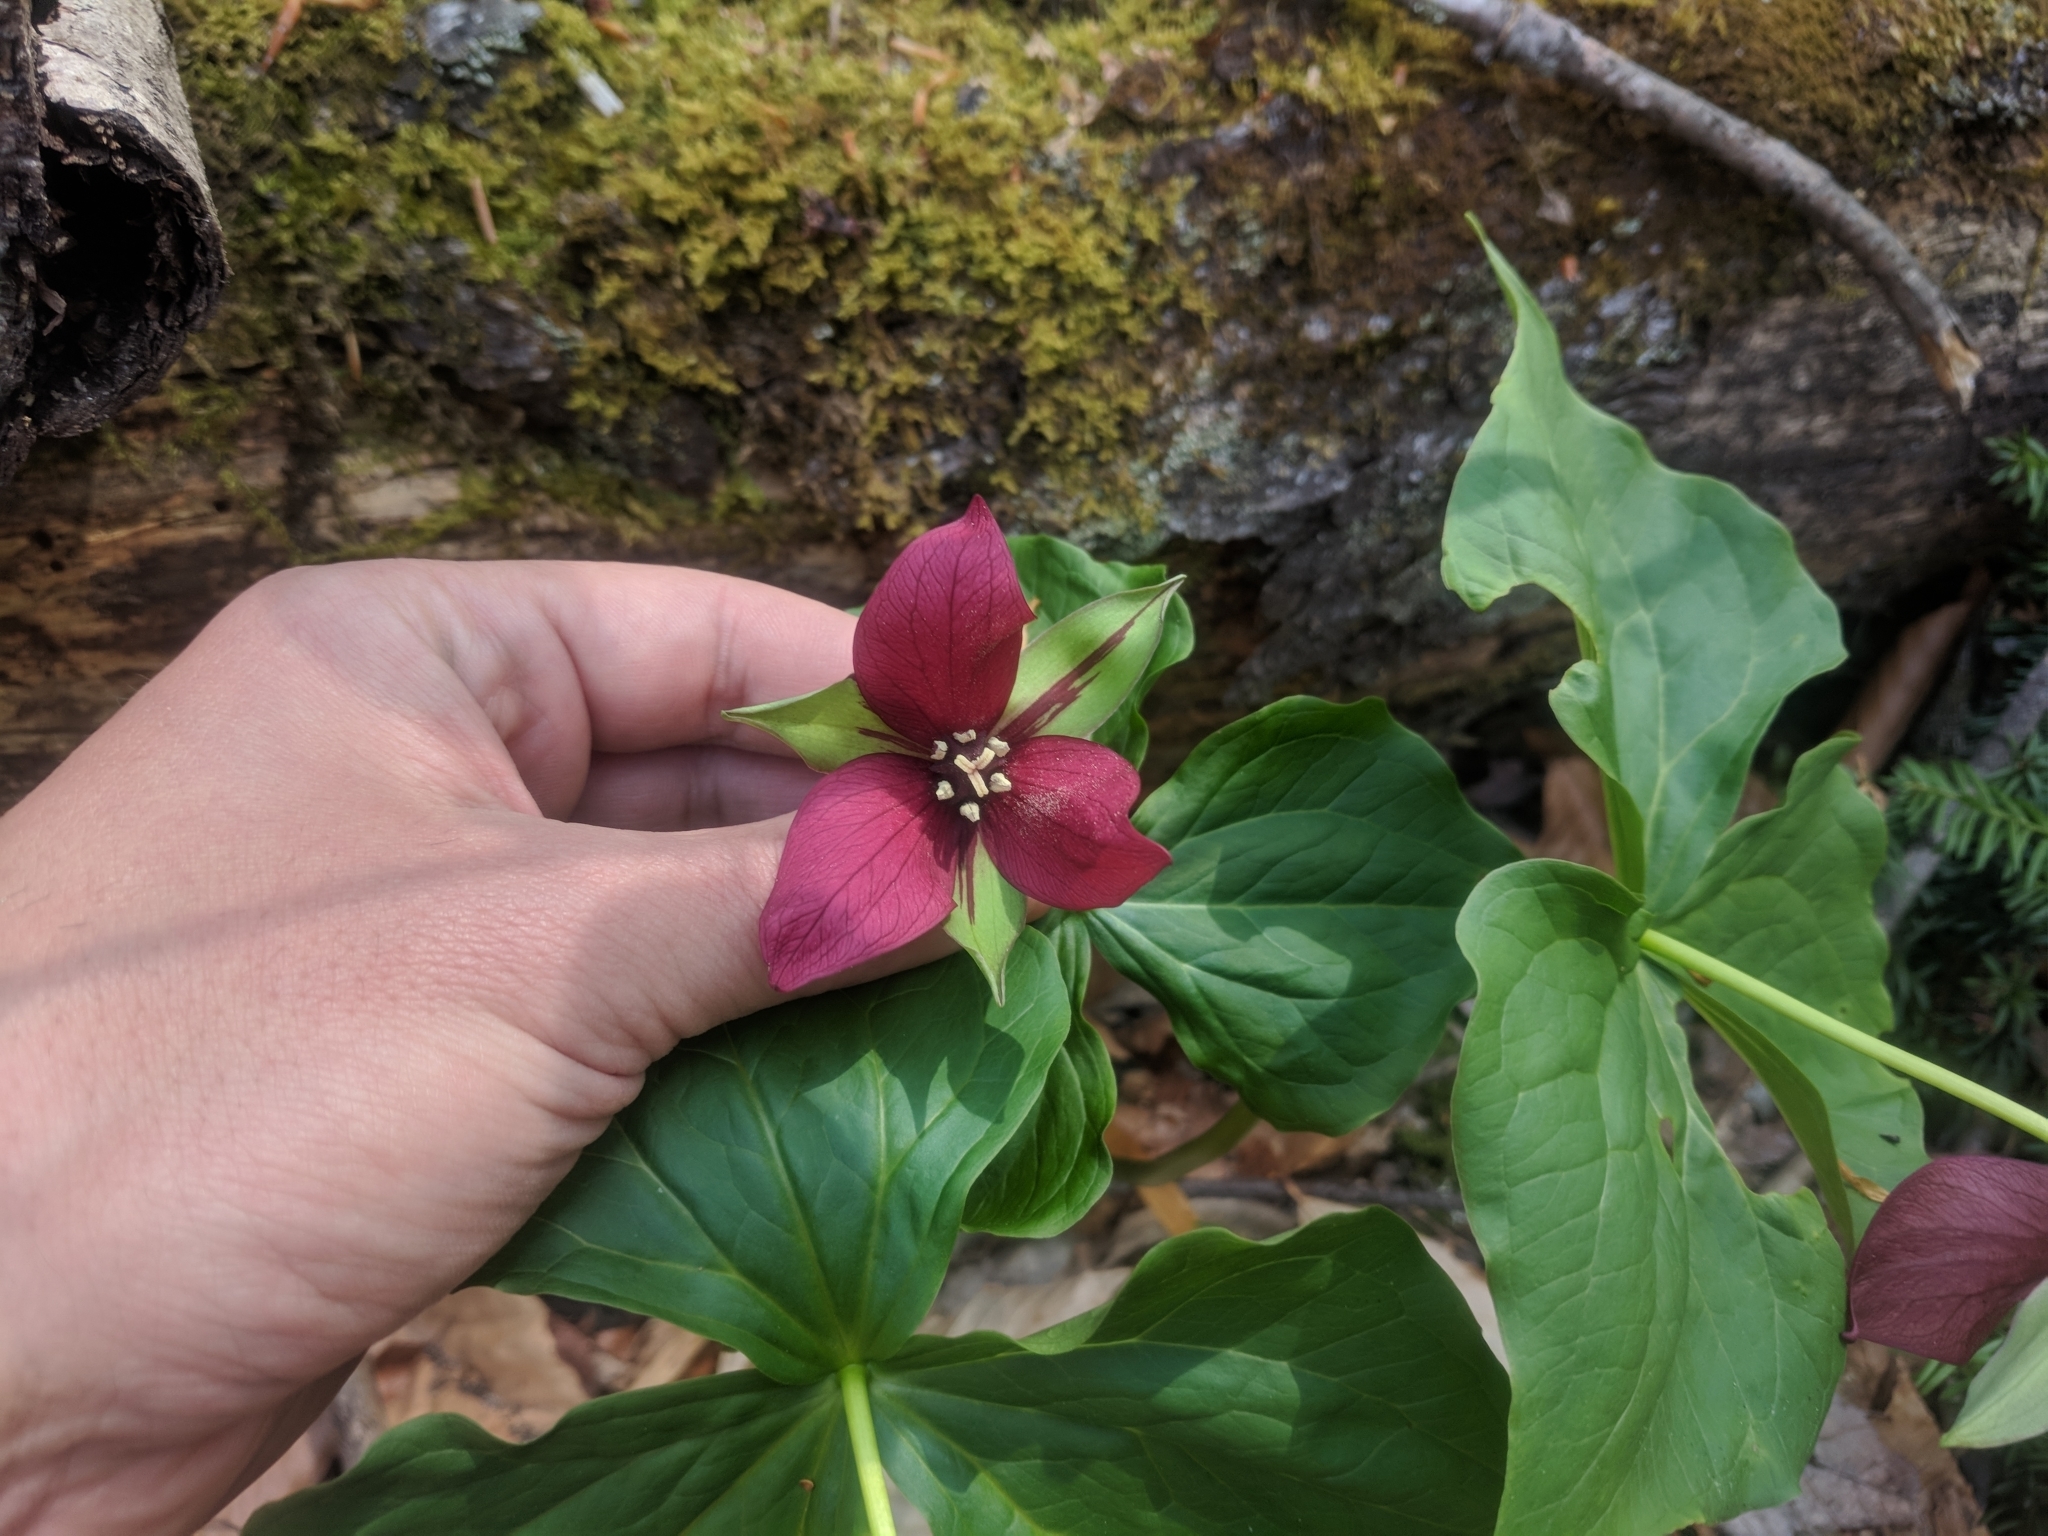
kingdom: Plantae
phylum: Tracheophyta
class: Liliopsida
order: Liliales
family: Melanthiaceae
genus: Trillium
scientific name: Trillium erectum
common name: Purple trillium
